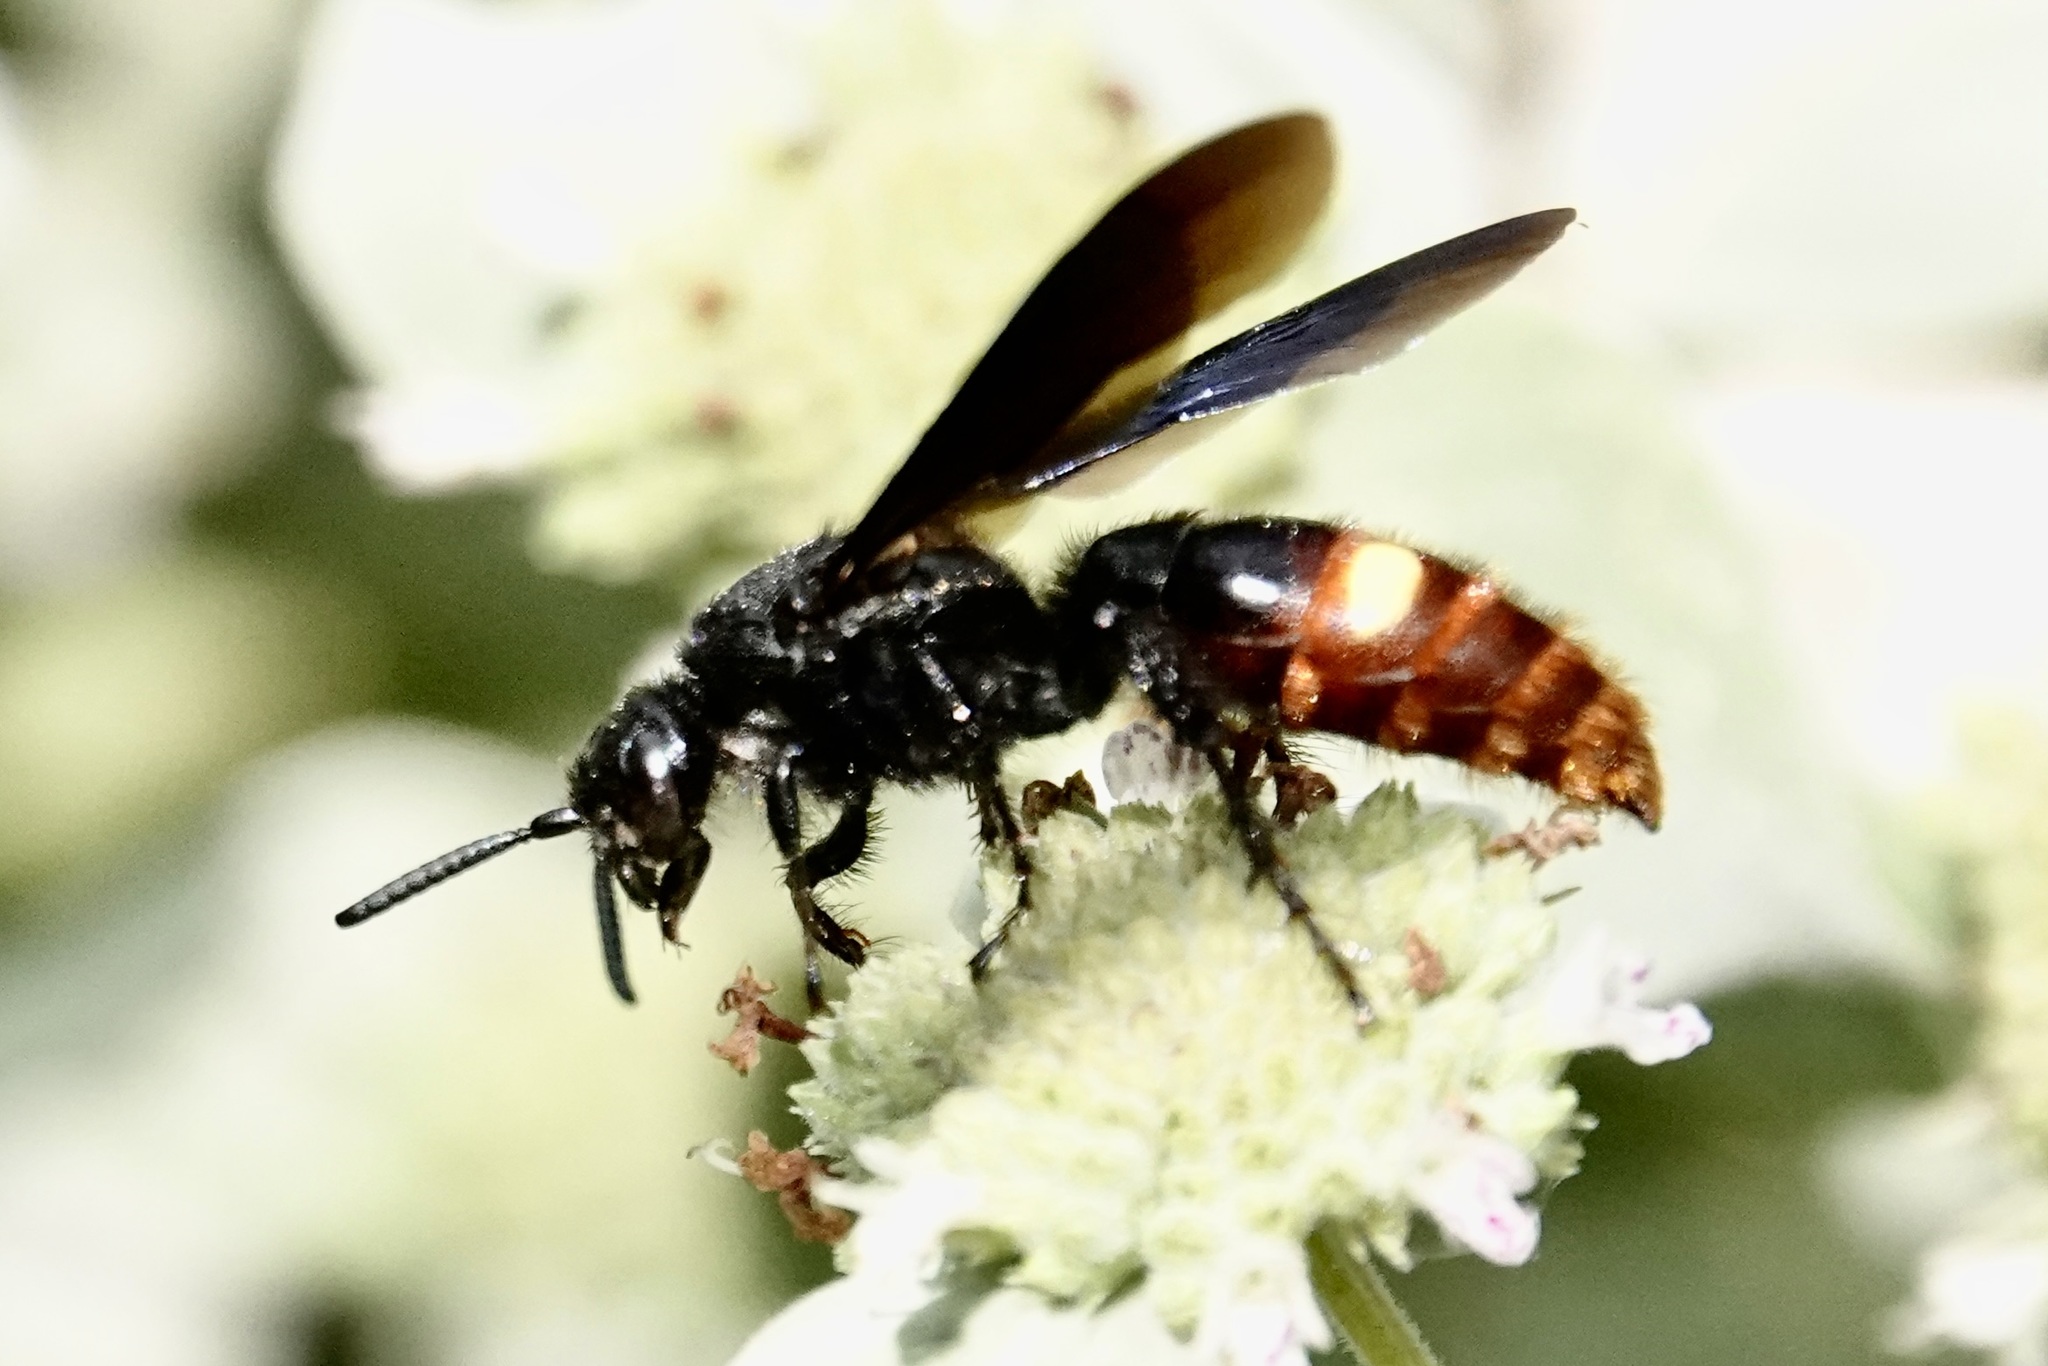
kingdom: Animalia
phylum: Arthropoda
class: Insecta
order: Hymenoptera
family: Scoliidae
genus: Scolia
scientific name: Scolia dubia
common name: Blue-winged scoliid wasp
